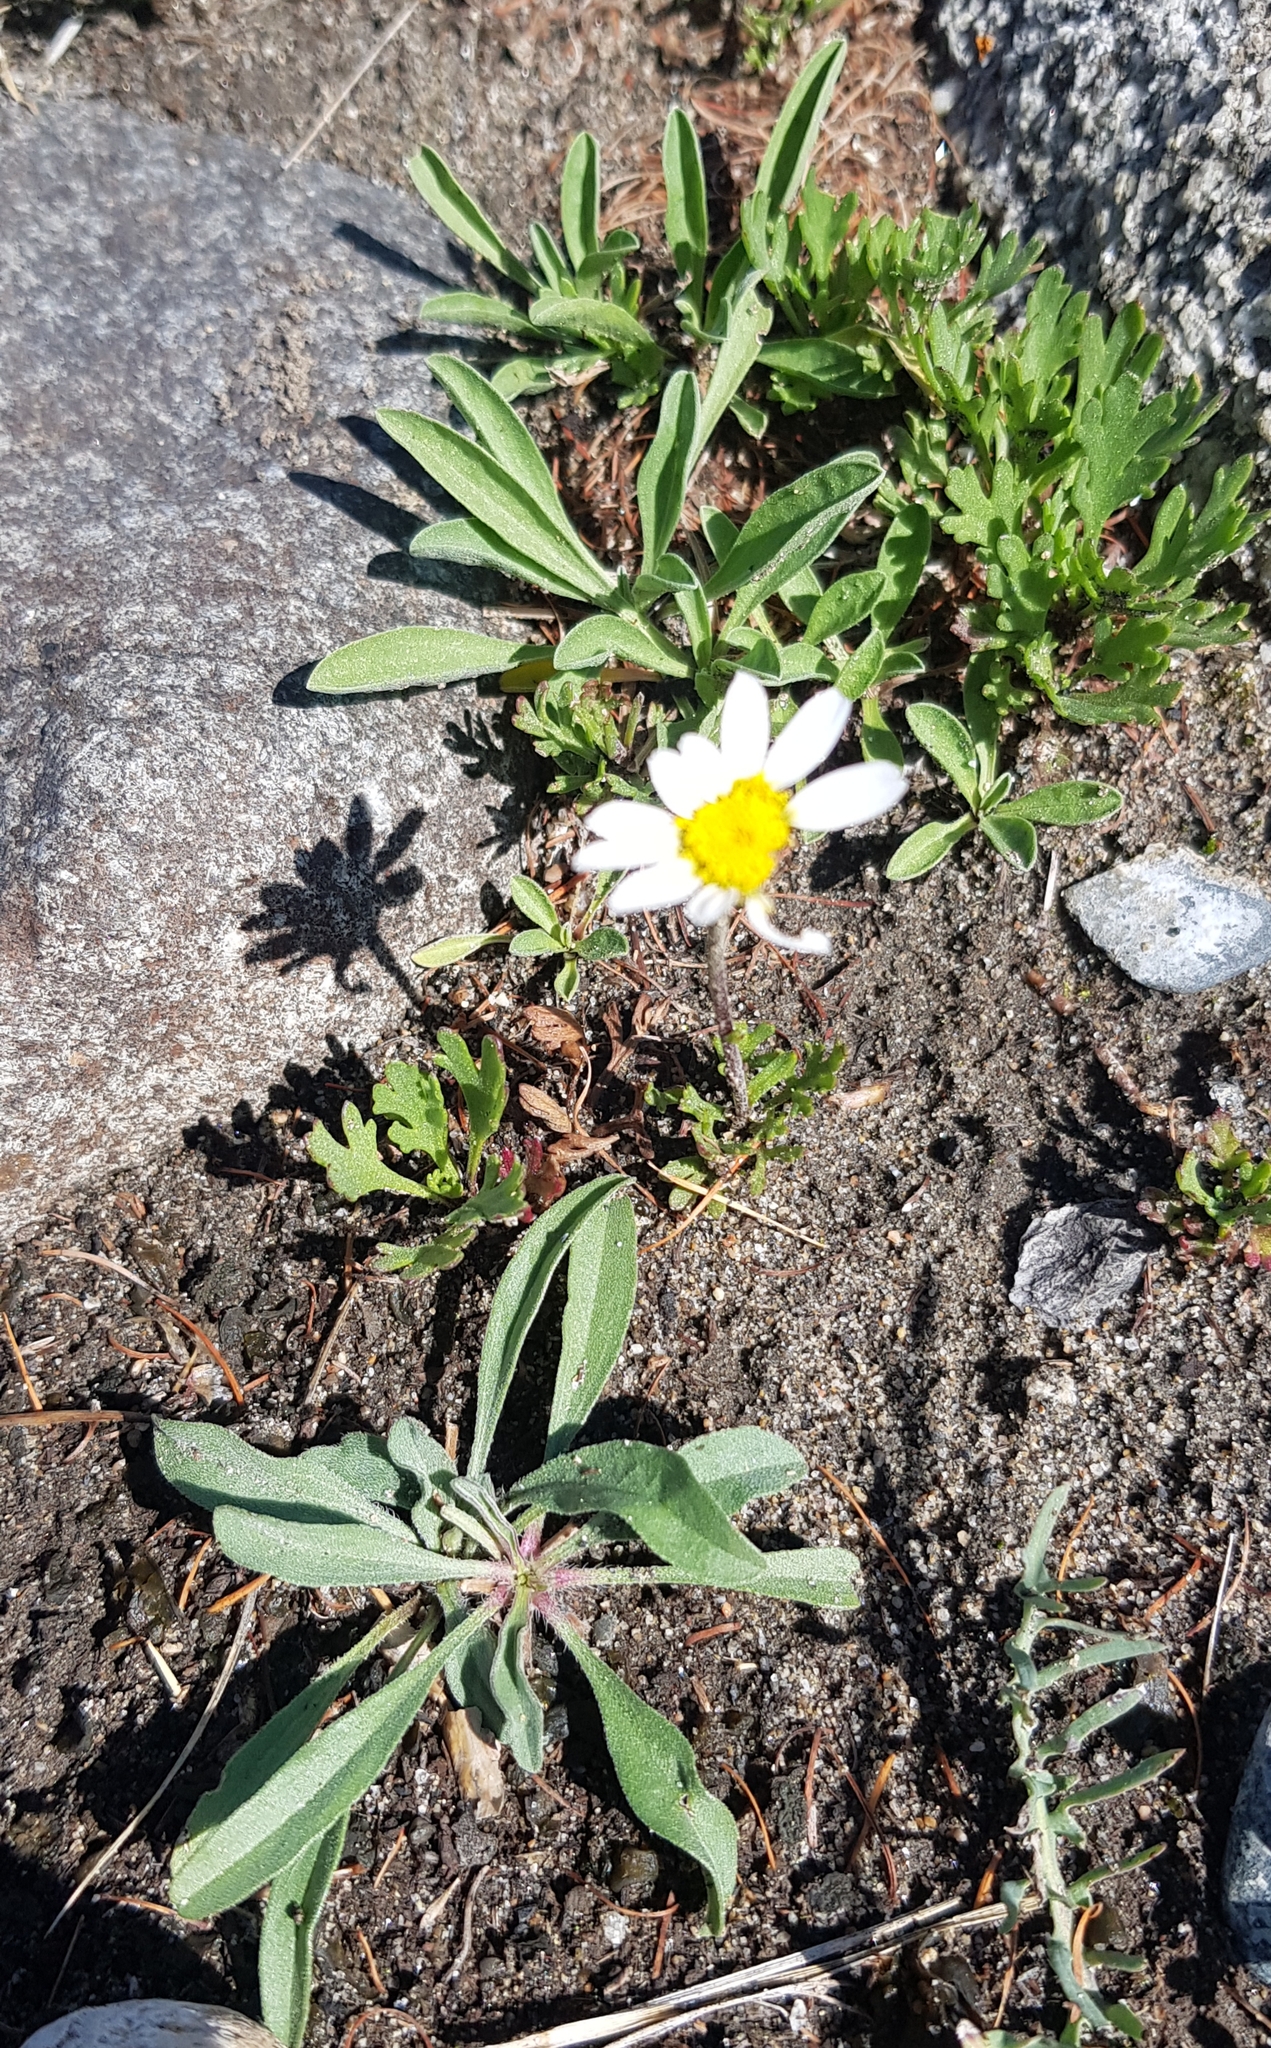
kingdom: Plantae
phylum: Tracheophyta
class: Magnoliopsida
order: Asterales
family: Asteraceae
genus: Chrysanthemum
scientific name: Chrysanthemum zawadzkii
